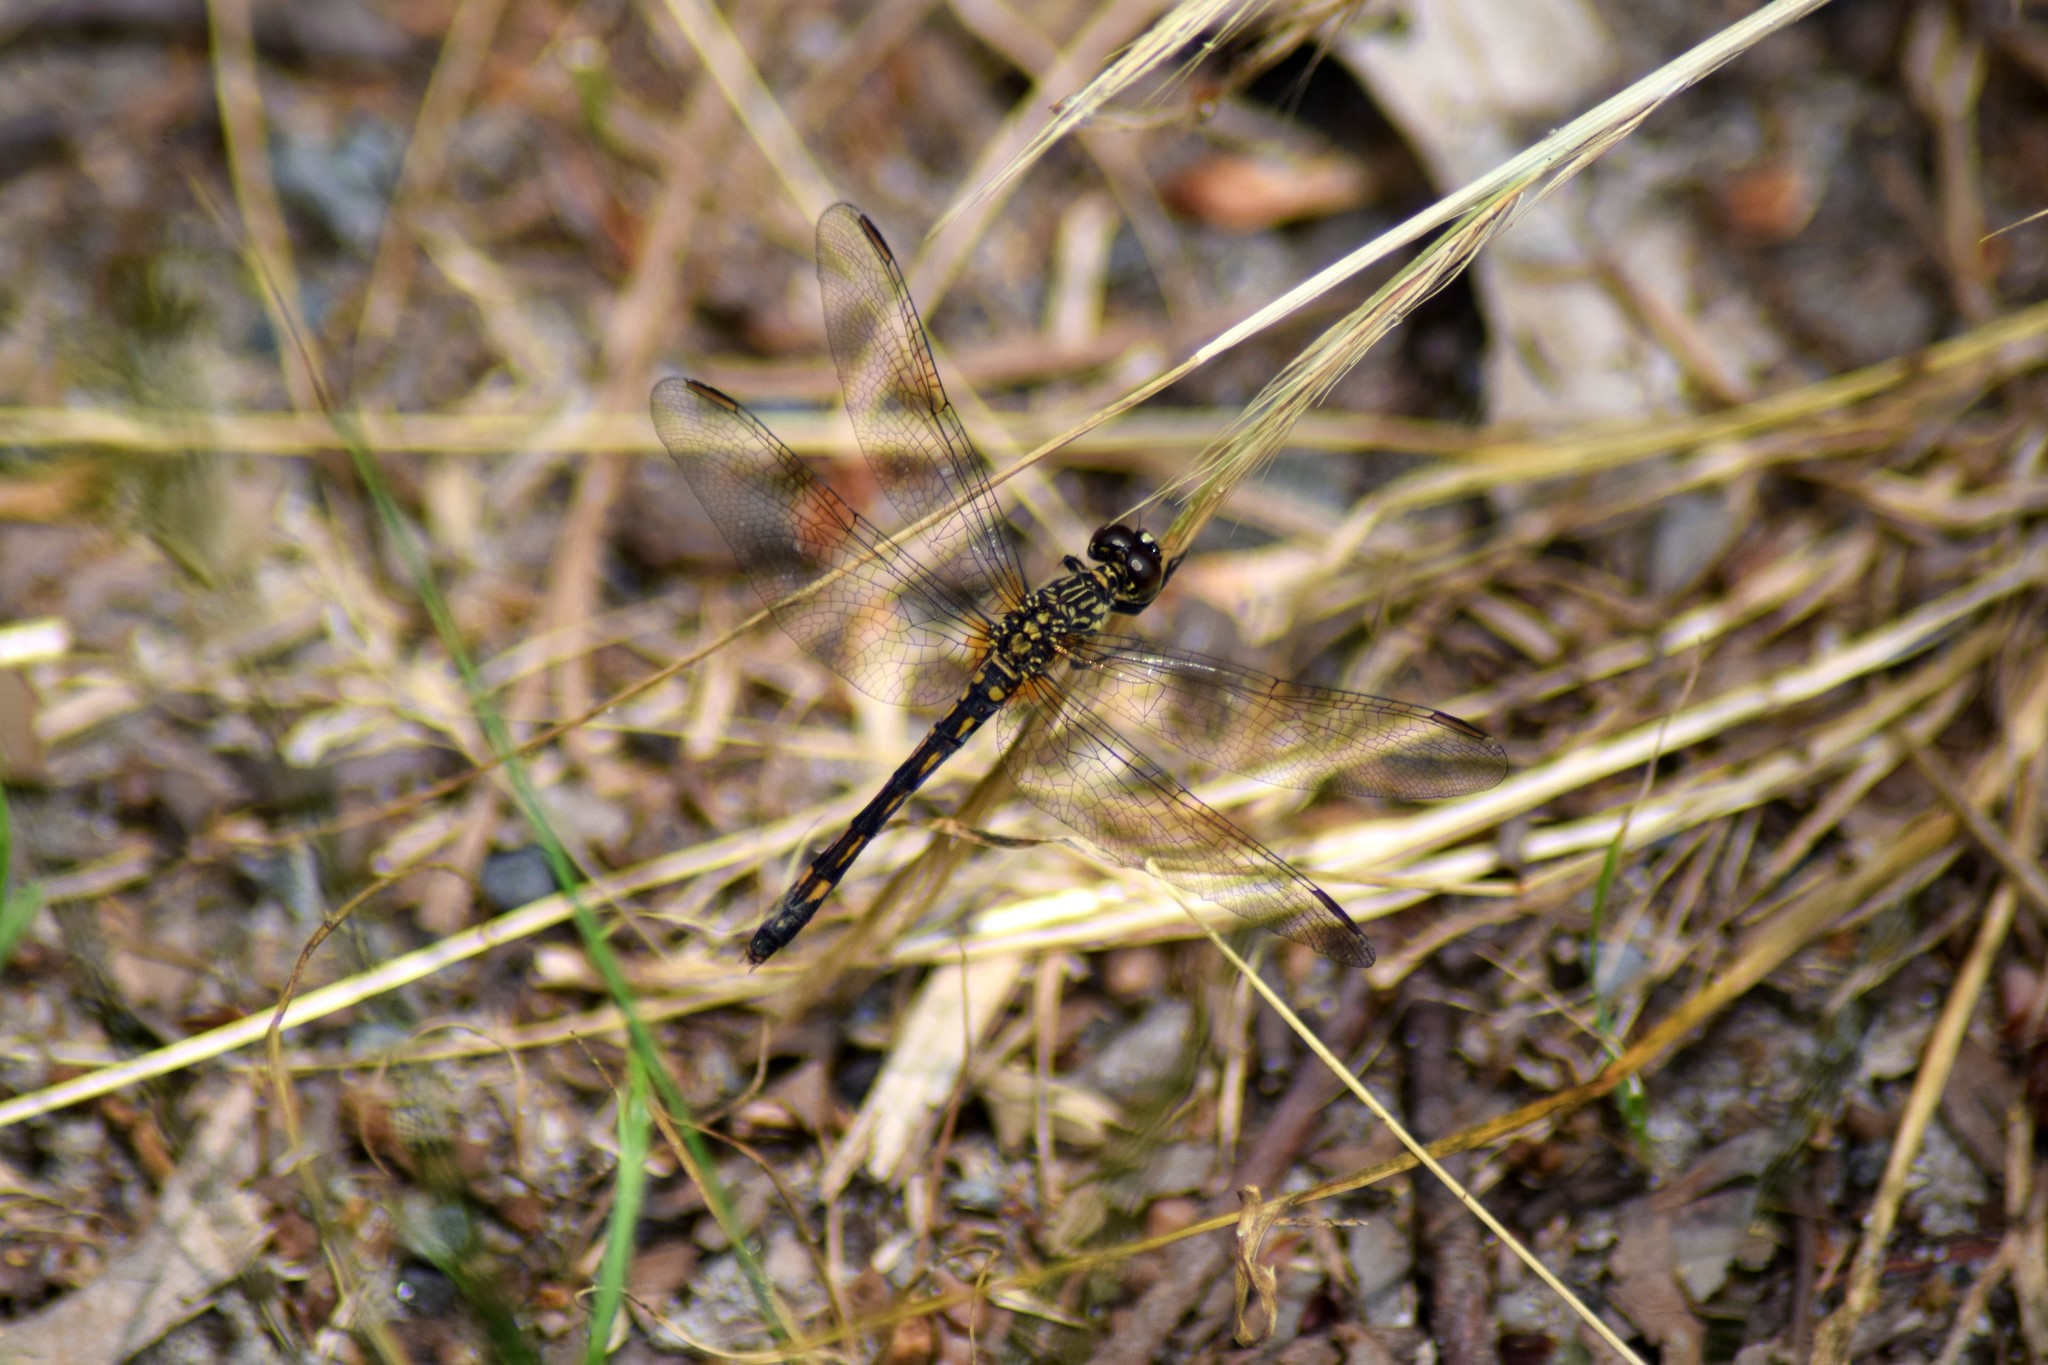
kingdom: Animalia
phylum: Arthropoda
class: Insecta
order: Odonata
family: Libellulidae
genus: Erythrodiplax
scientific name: Erythrodiplax berenice
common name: Seaside dragonlet
